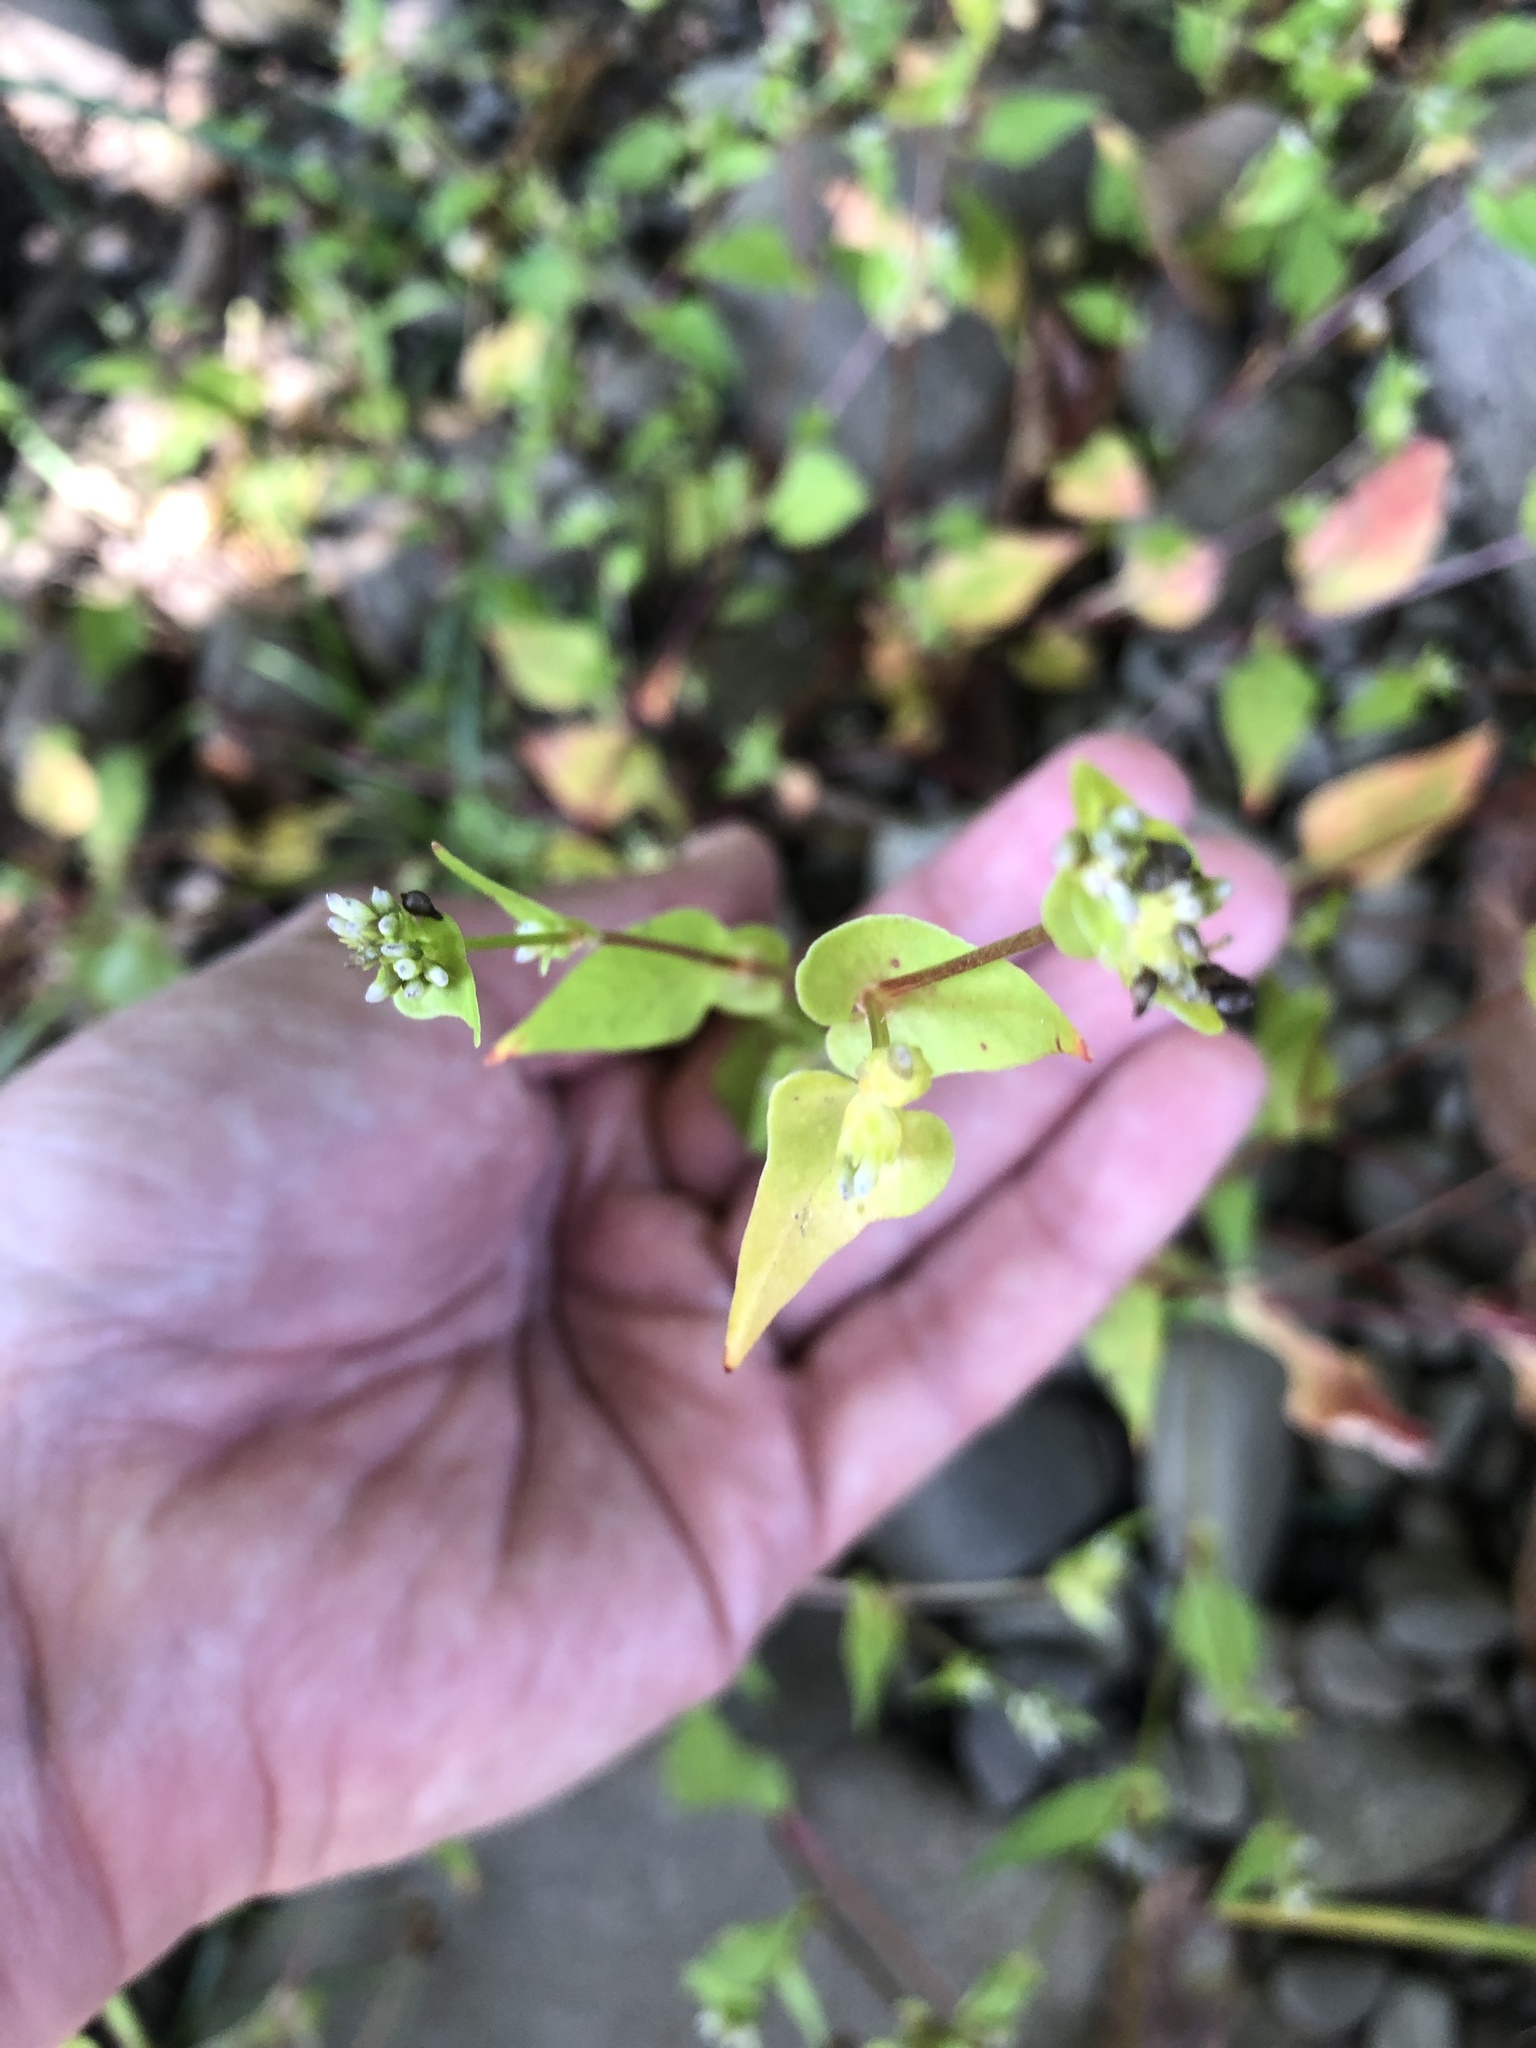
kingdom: Plantae
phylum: Tracheophyta
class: Magnoliopsida
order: Caryophyllales
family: Polygonaceae
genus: Persicaria
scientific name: Persicaria nepalensis
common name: Nepal persicaria
